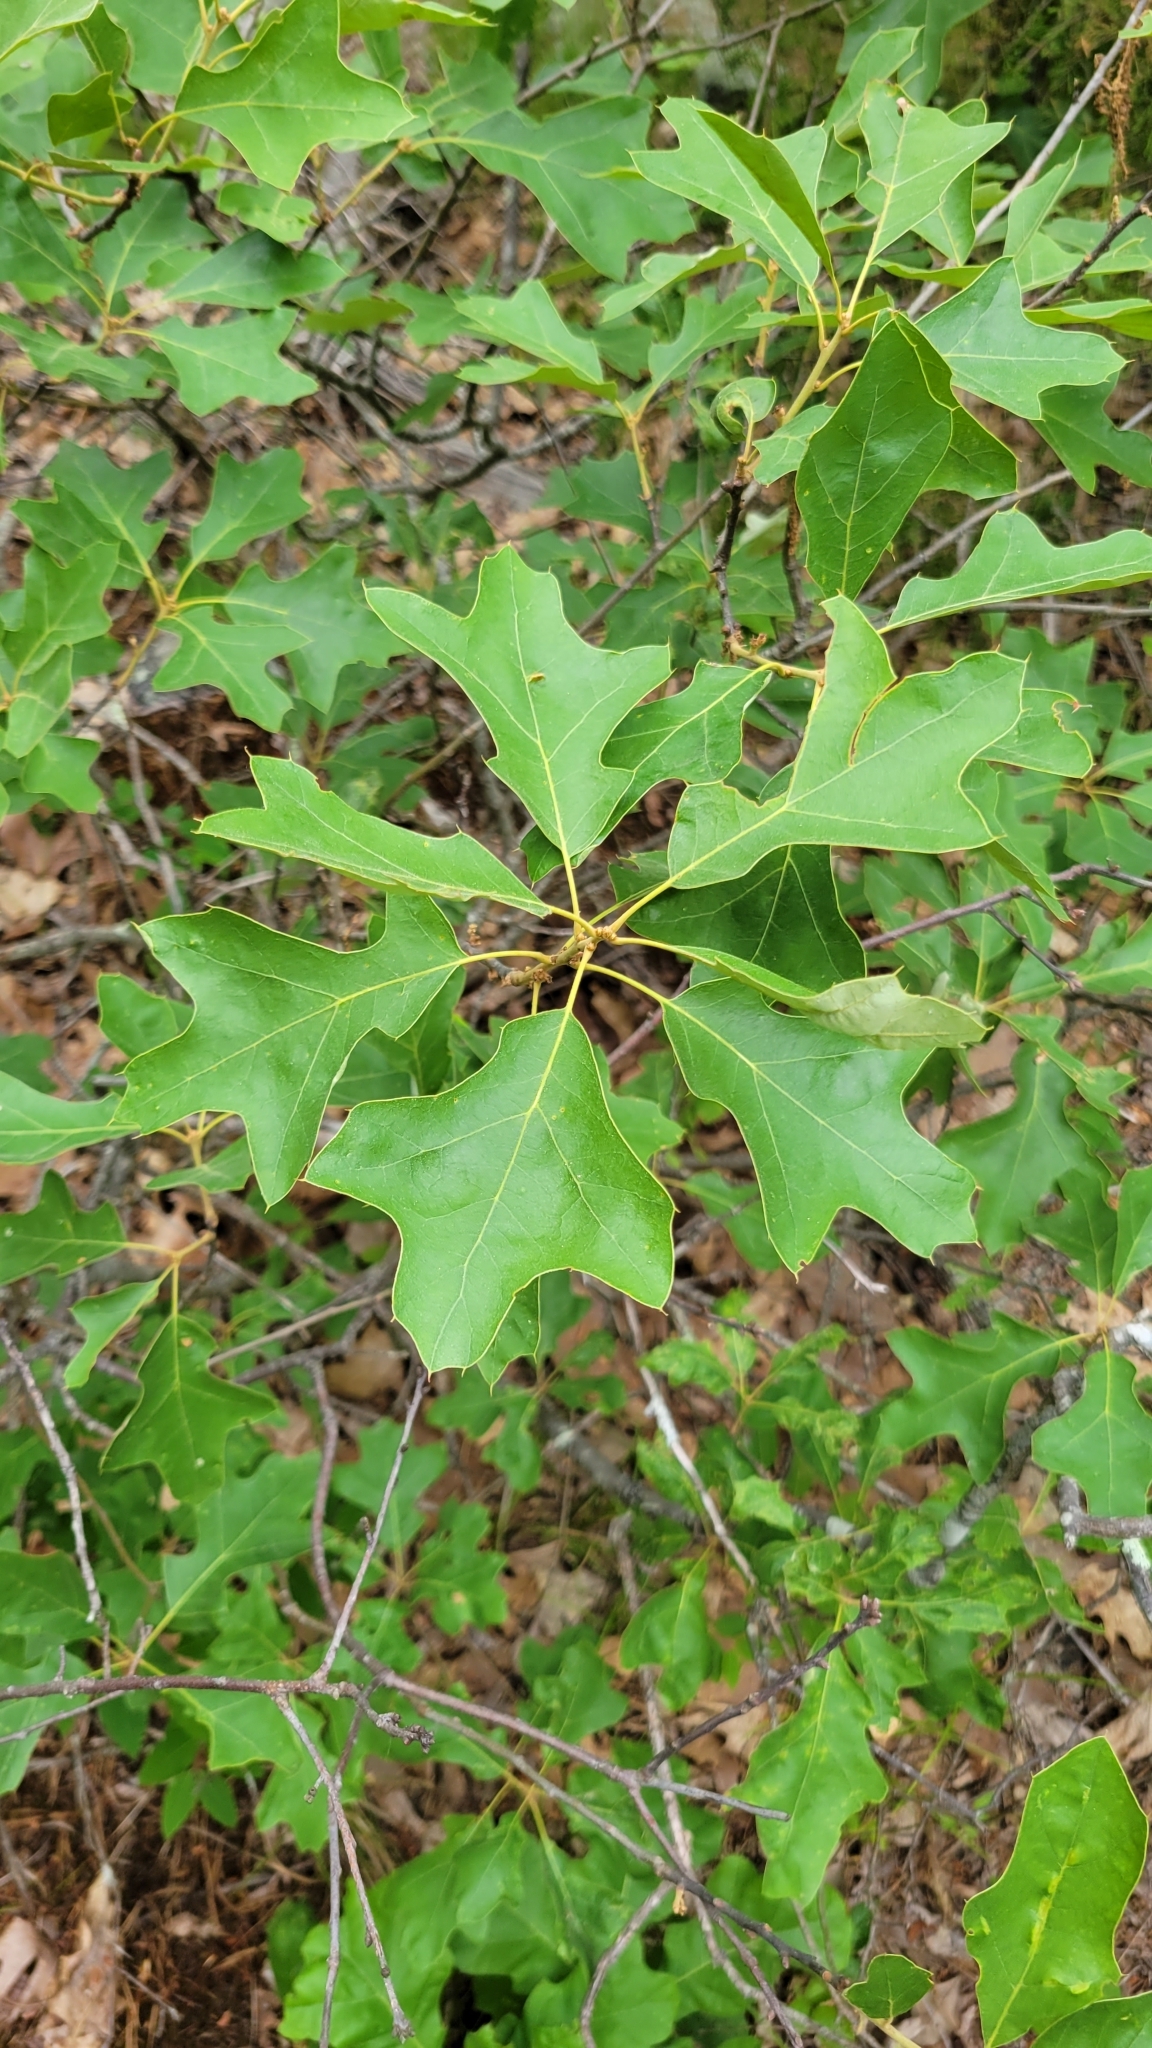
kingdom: Plantae
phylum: Tracheophyta
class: Magnoliopsida
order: Fagales
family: Fagaceae
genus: Quercus
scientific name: Quercus ilicifolia
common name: Bear oak
